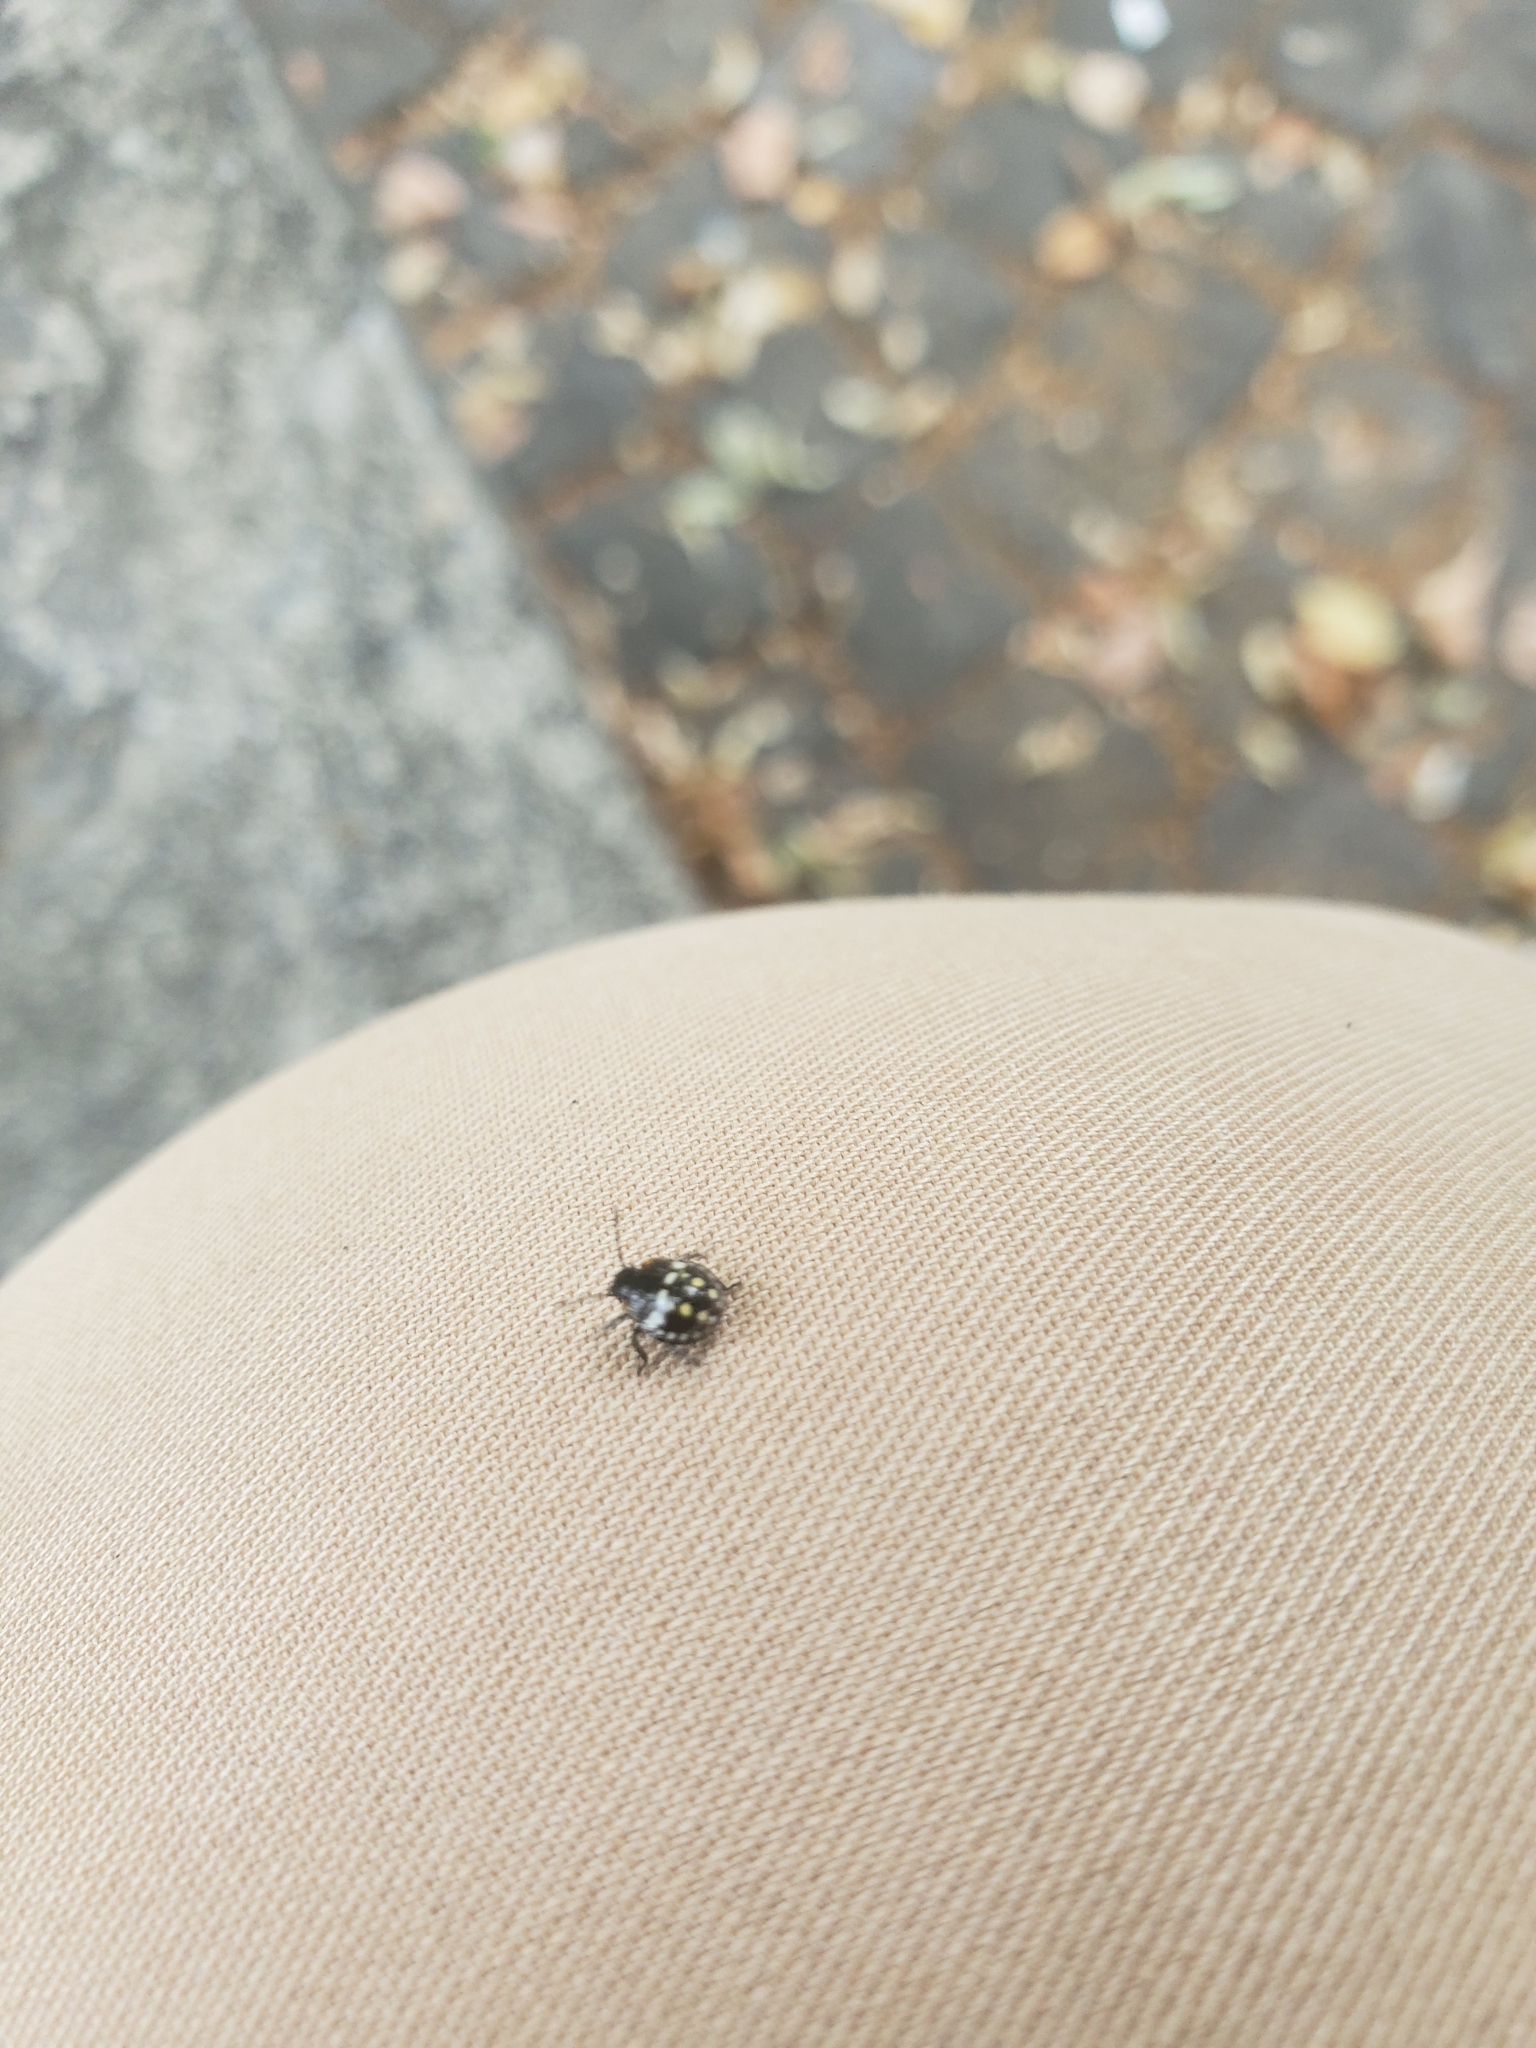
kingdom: Animalia
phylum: Arthropoda
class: Insecta
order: Hemiptera
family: Pentatomidae
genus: Nezara
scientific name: Nezara viridula
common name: Southern green stink bug
